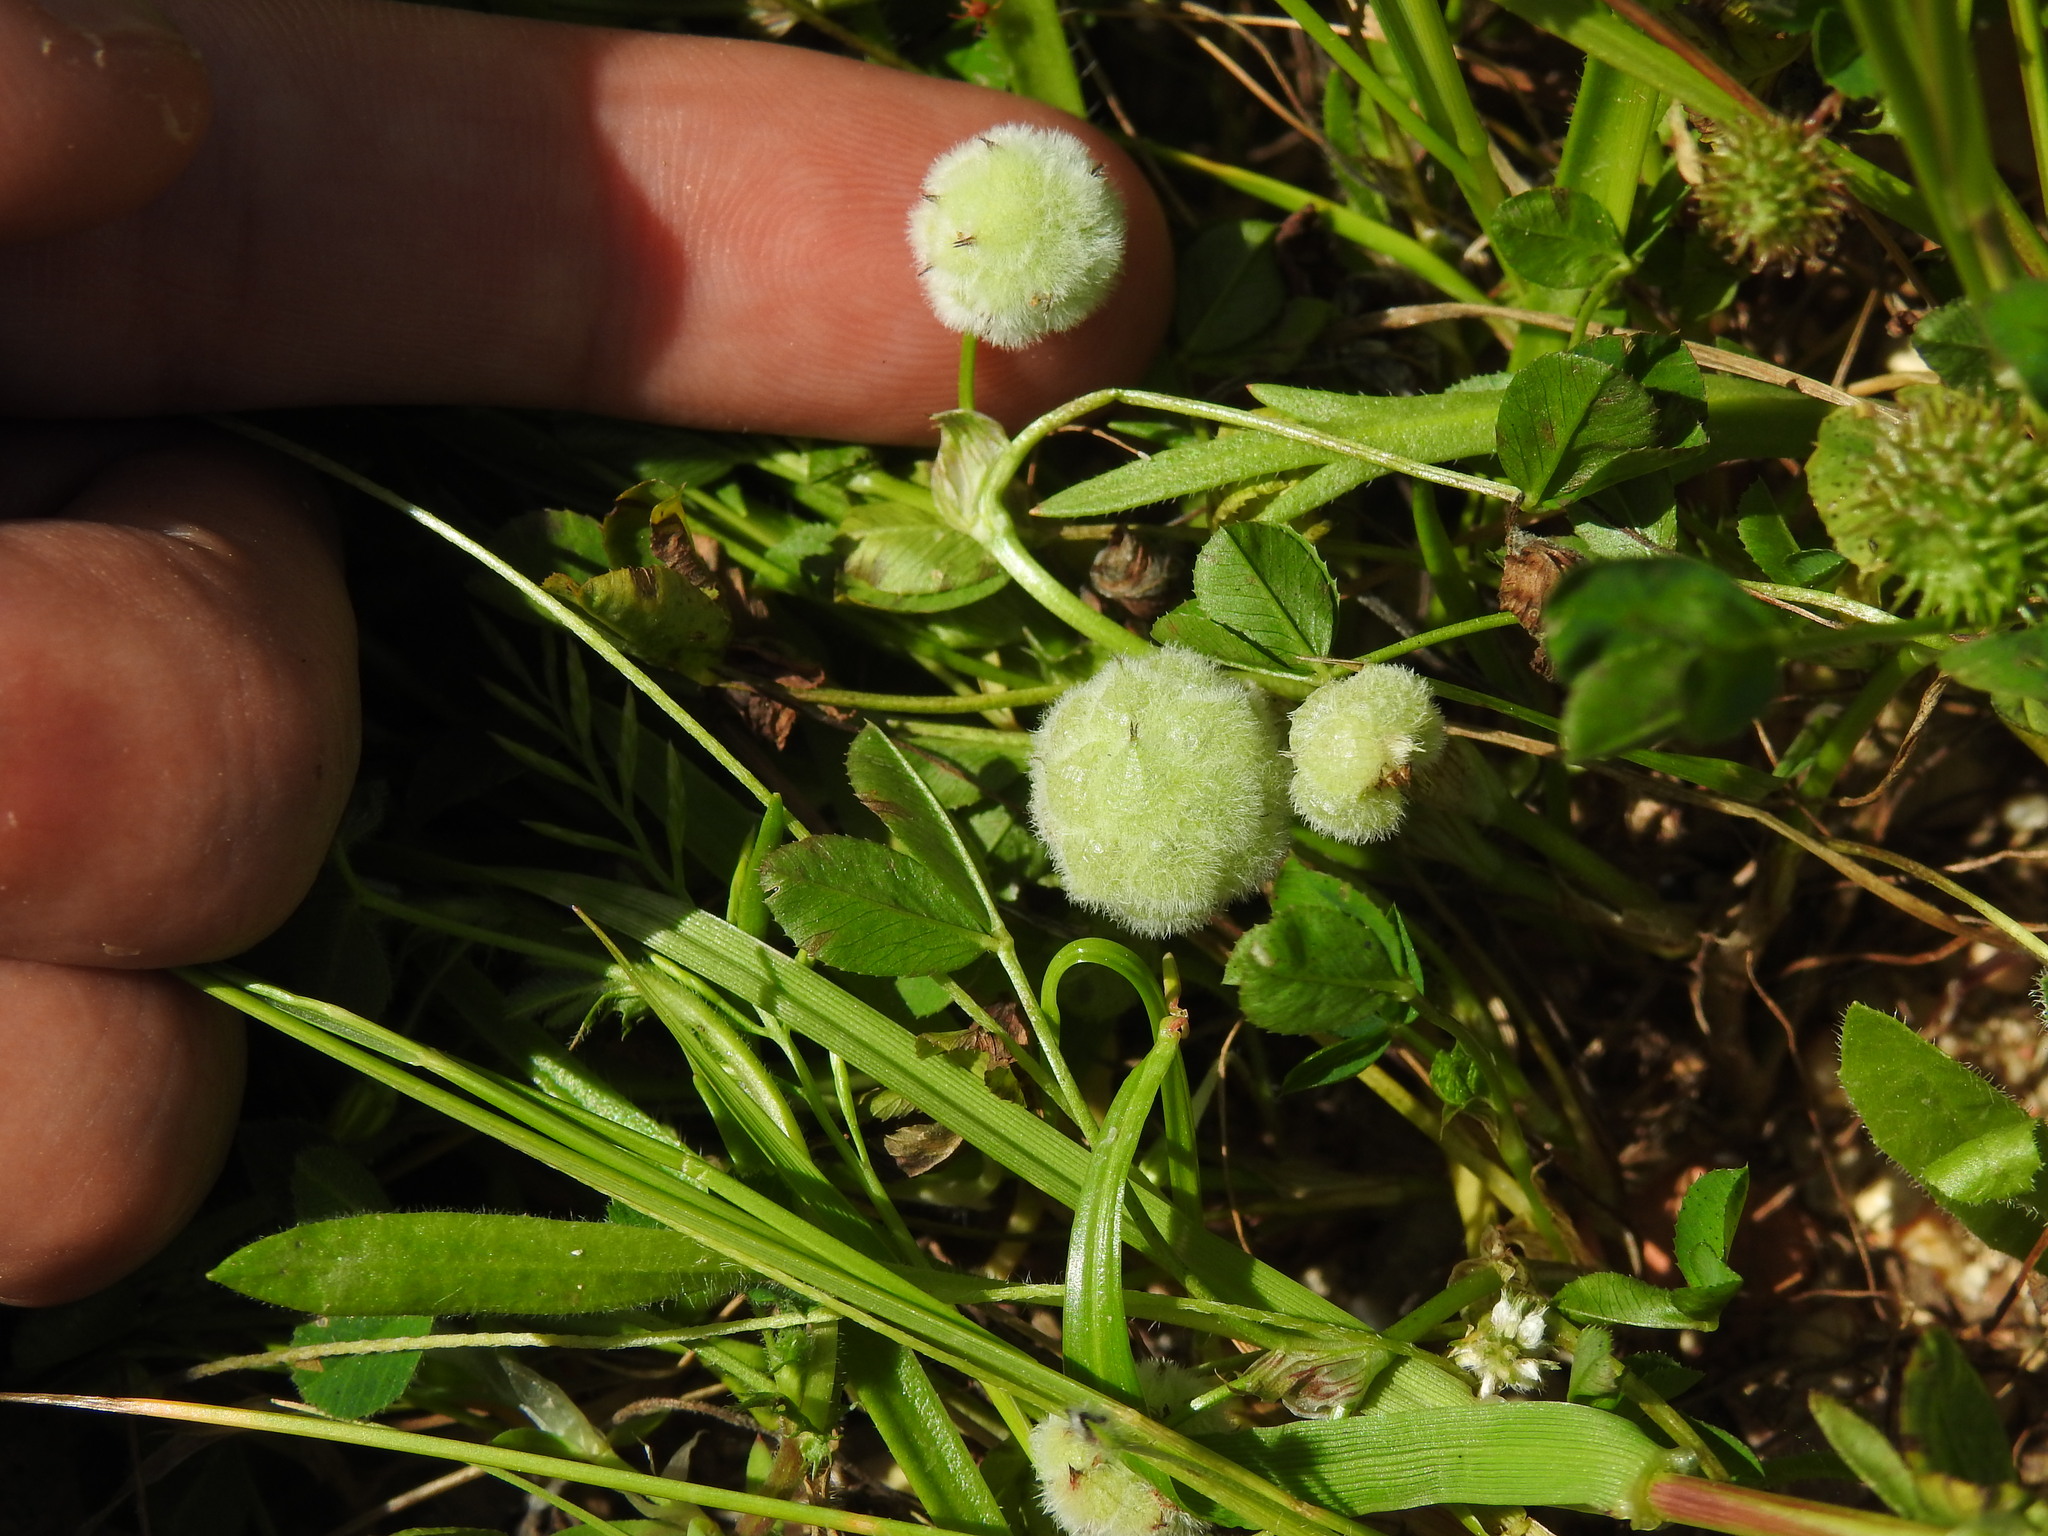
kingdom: Plantae
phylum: Tracheophyta
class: Magnoliopsida
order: Fabales
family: Fabaceae
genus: Trifolium
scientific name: Trifolium tomentosum
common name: Woolly clover
